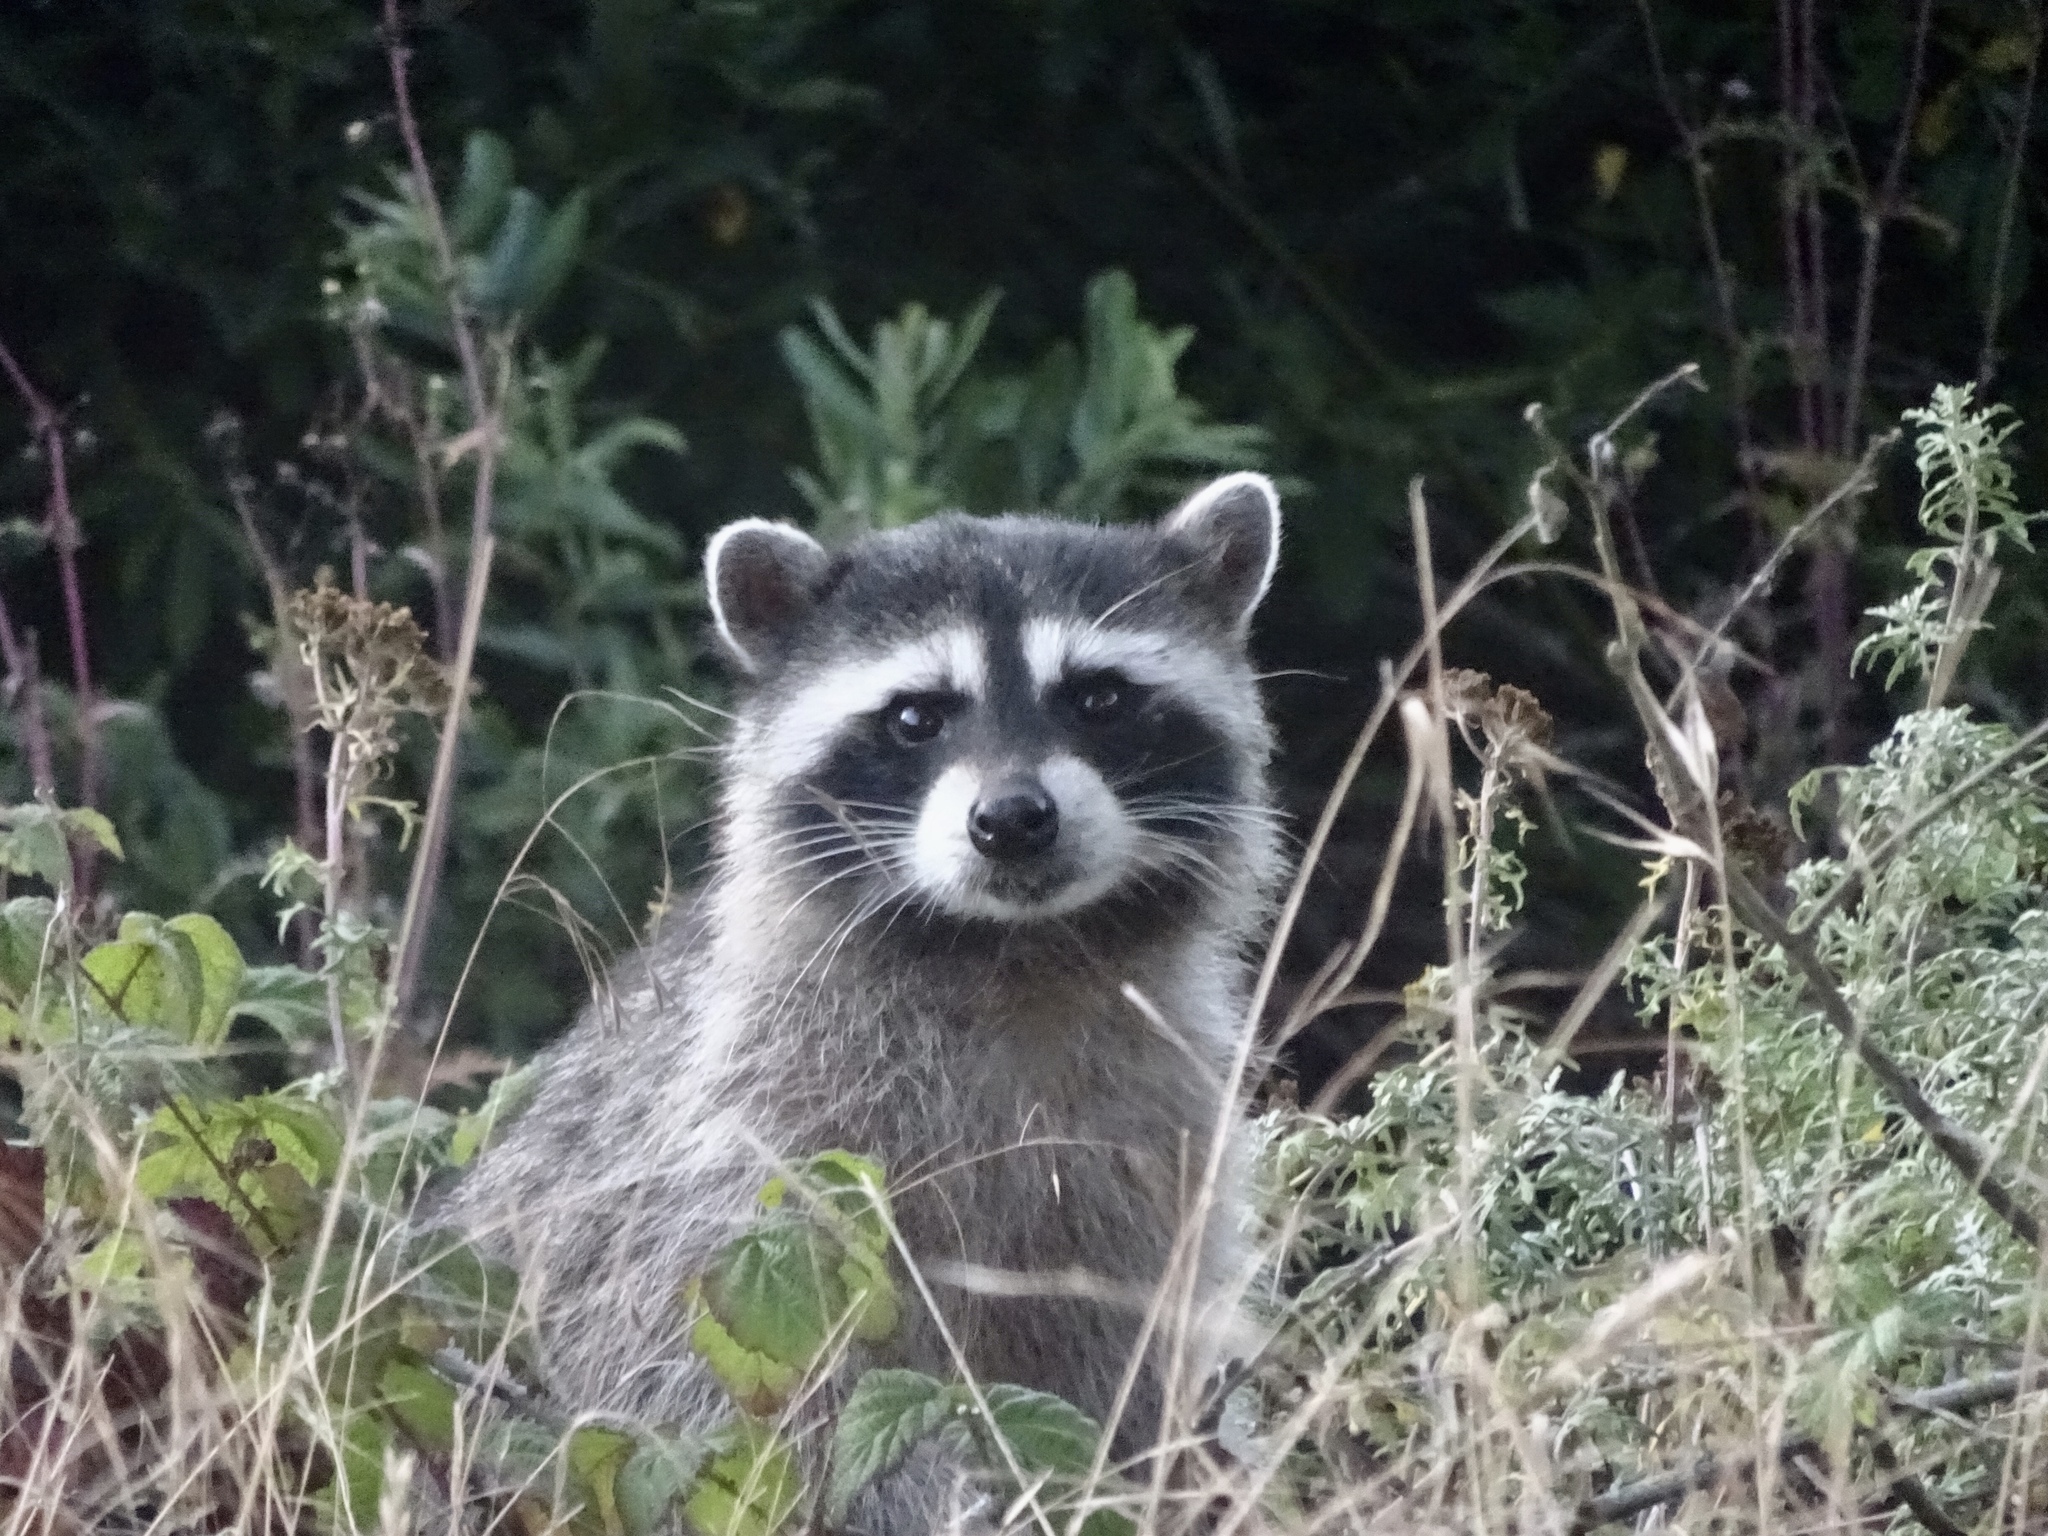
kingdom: Animalia
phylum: Chordata
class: Mammalia
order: Carnivora
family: Procyonidae
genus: Procyon
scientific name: Procyon lotor
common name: Raccoon
